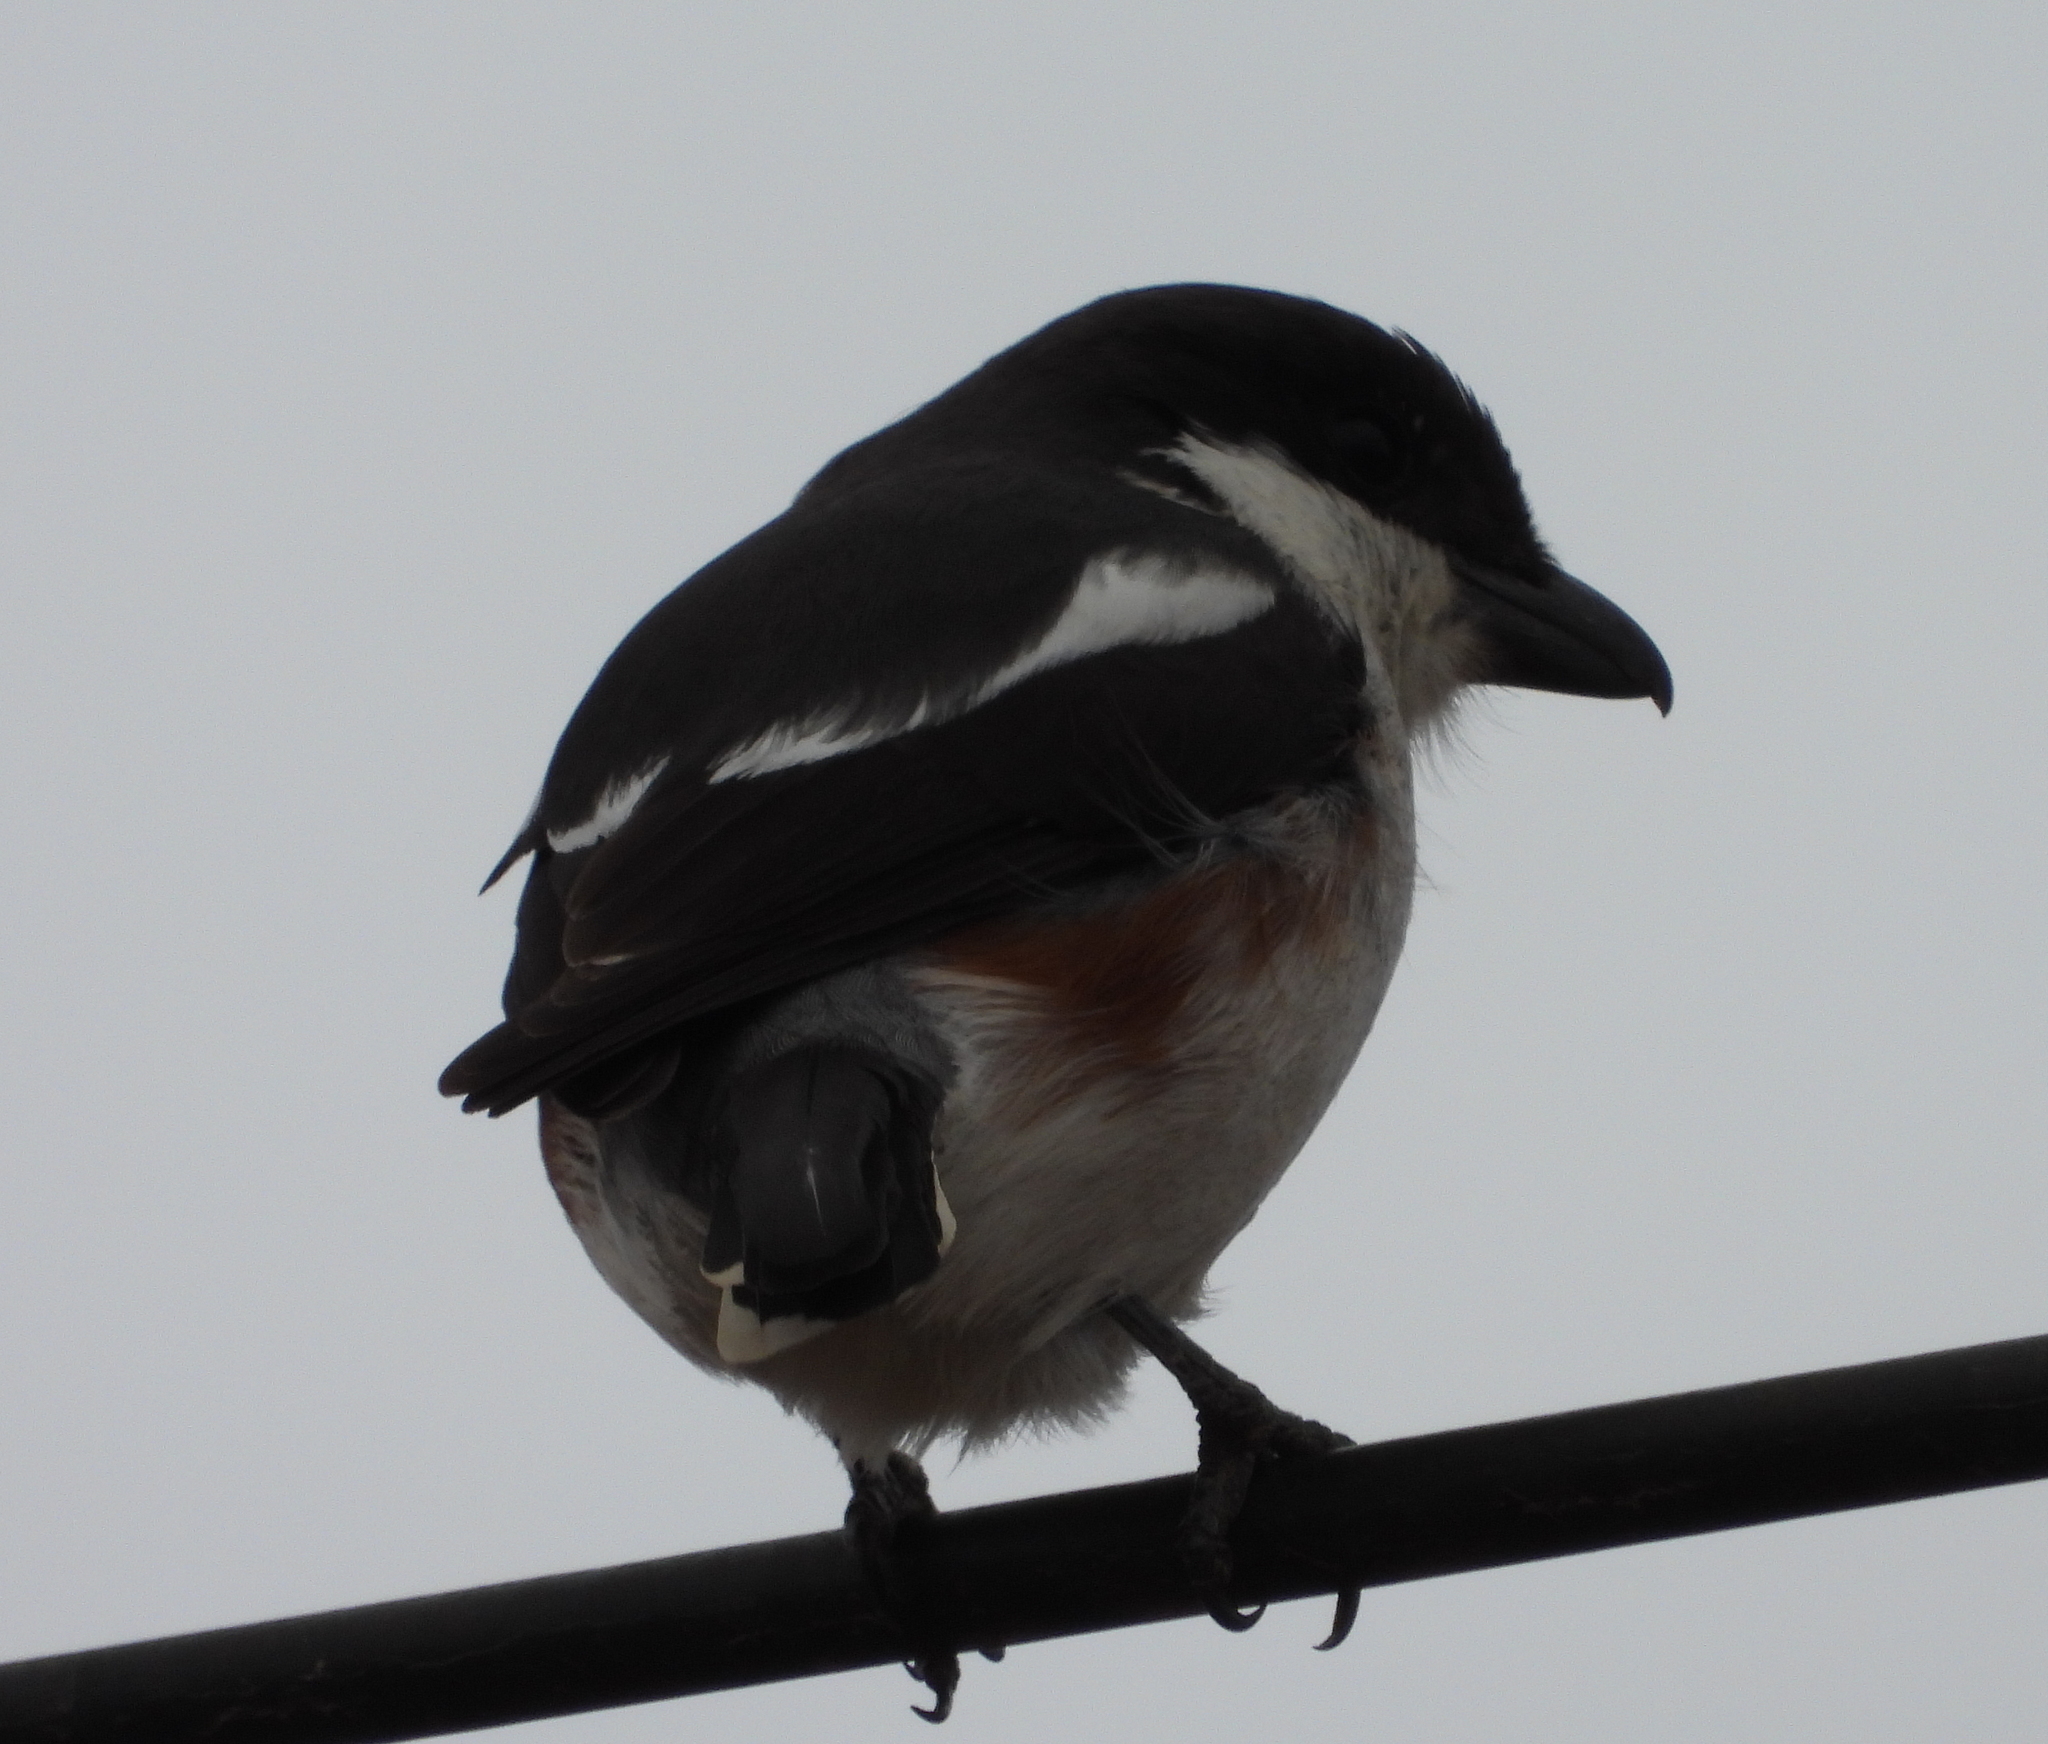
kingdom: Animalia
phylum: Chordata
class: Aves
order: Passeriformes
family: Laniidae
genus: Lanius
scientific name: Lanius collaris
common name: Southern fiscal
